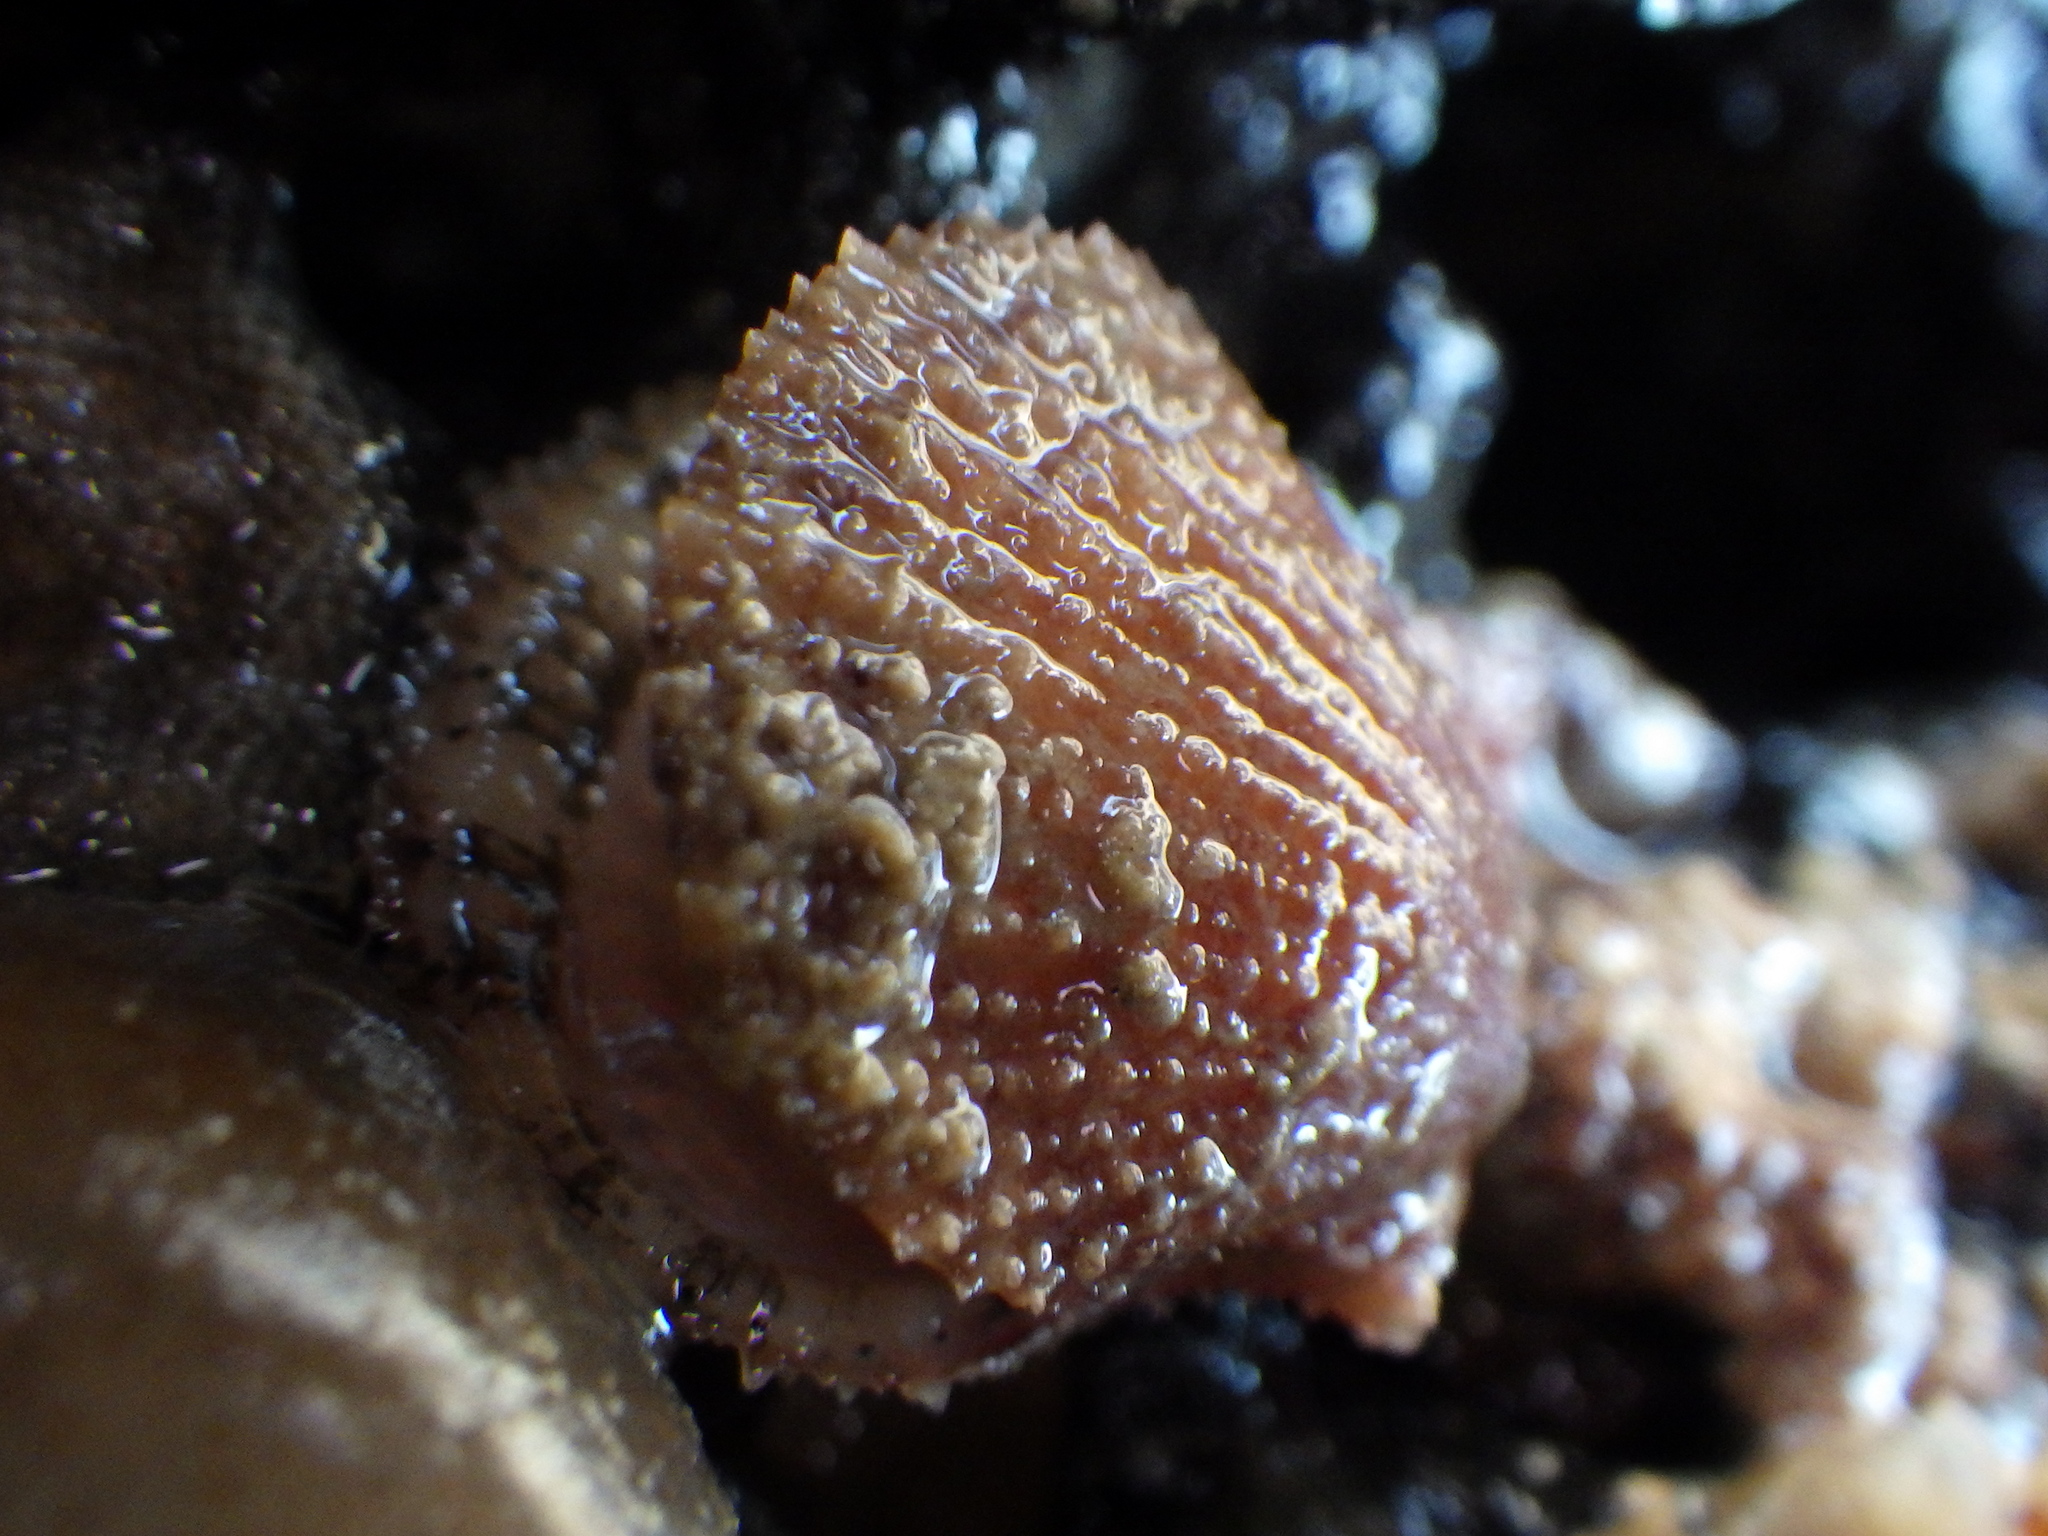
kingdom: Animalia
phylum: Mollusca
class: Bivalvia
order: Pectinida
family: Pectinidae
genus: Talochlamys
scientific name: Talochlamys zelandiae
